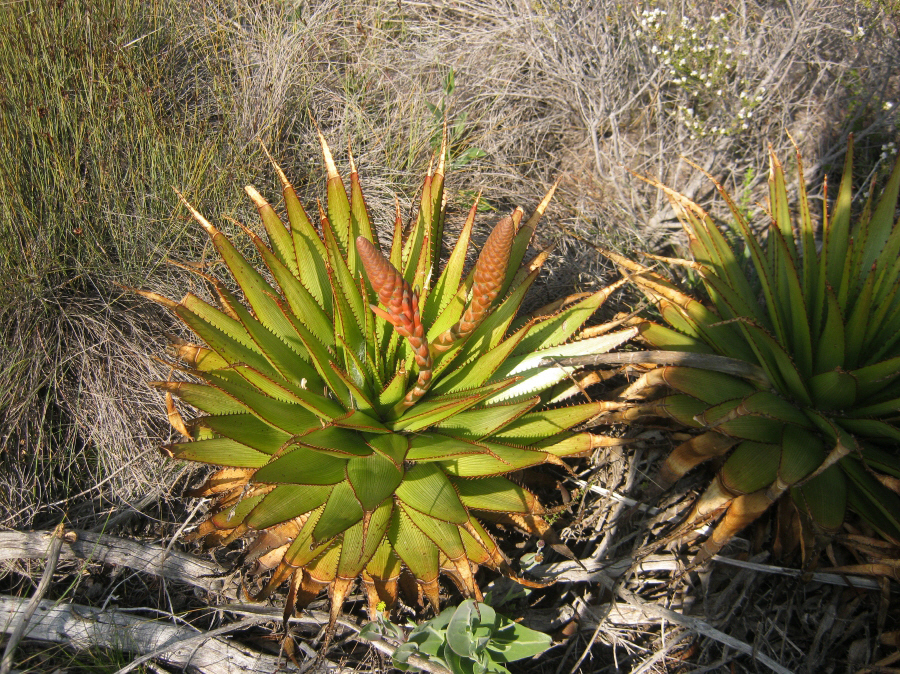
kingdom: Plantae
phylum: Tracheophyta
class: Liliopsida
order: Asparagales
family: Asphodelaceae
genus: Aloe
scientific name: Aloe lineata
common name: Lined red-spined aloe
